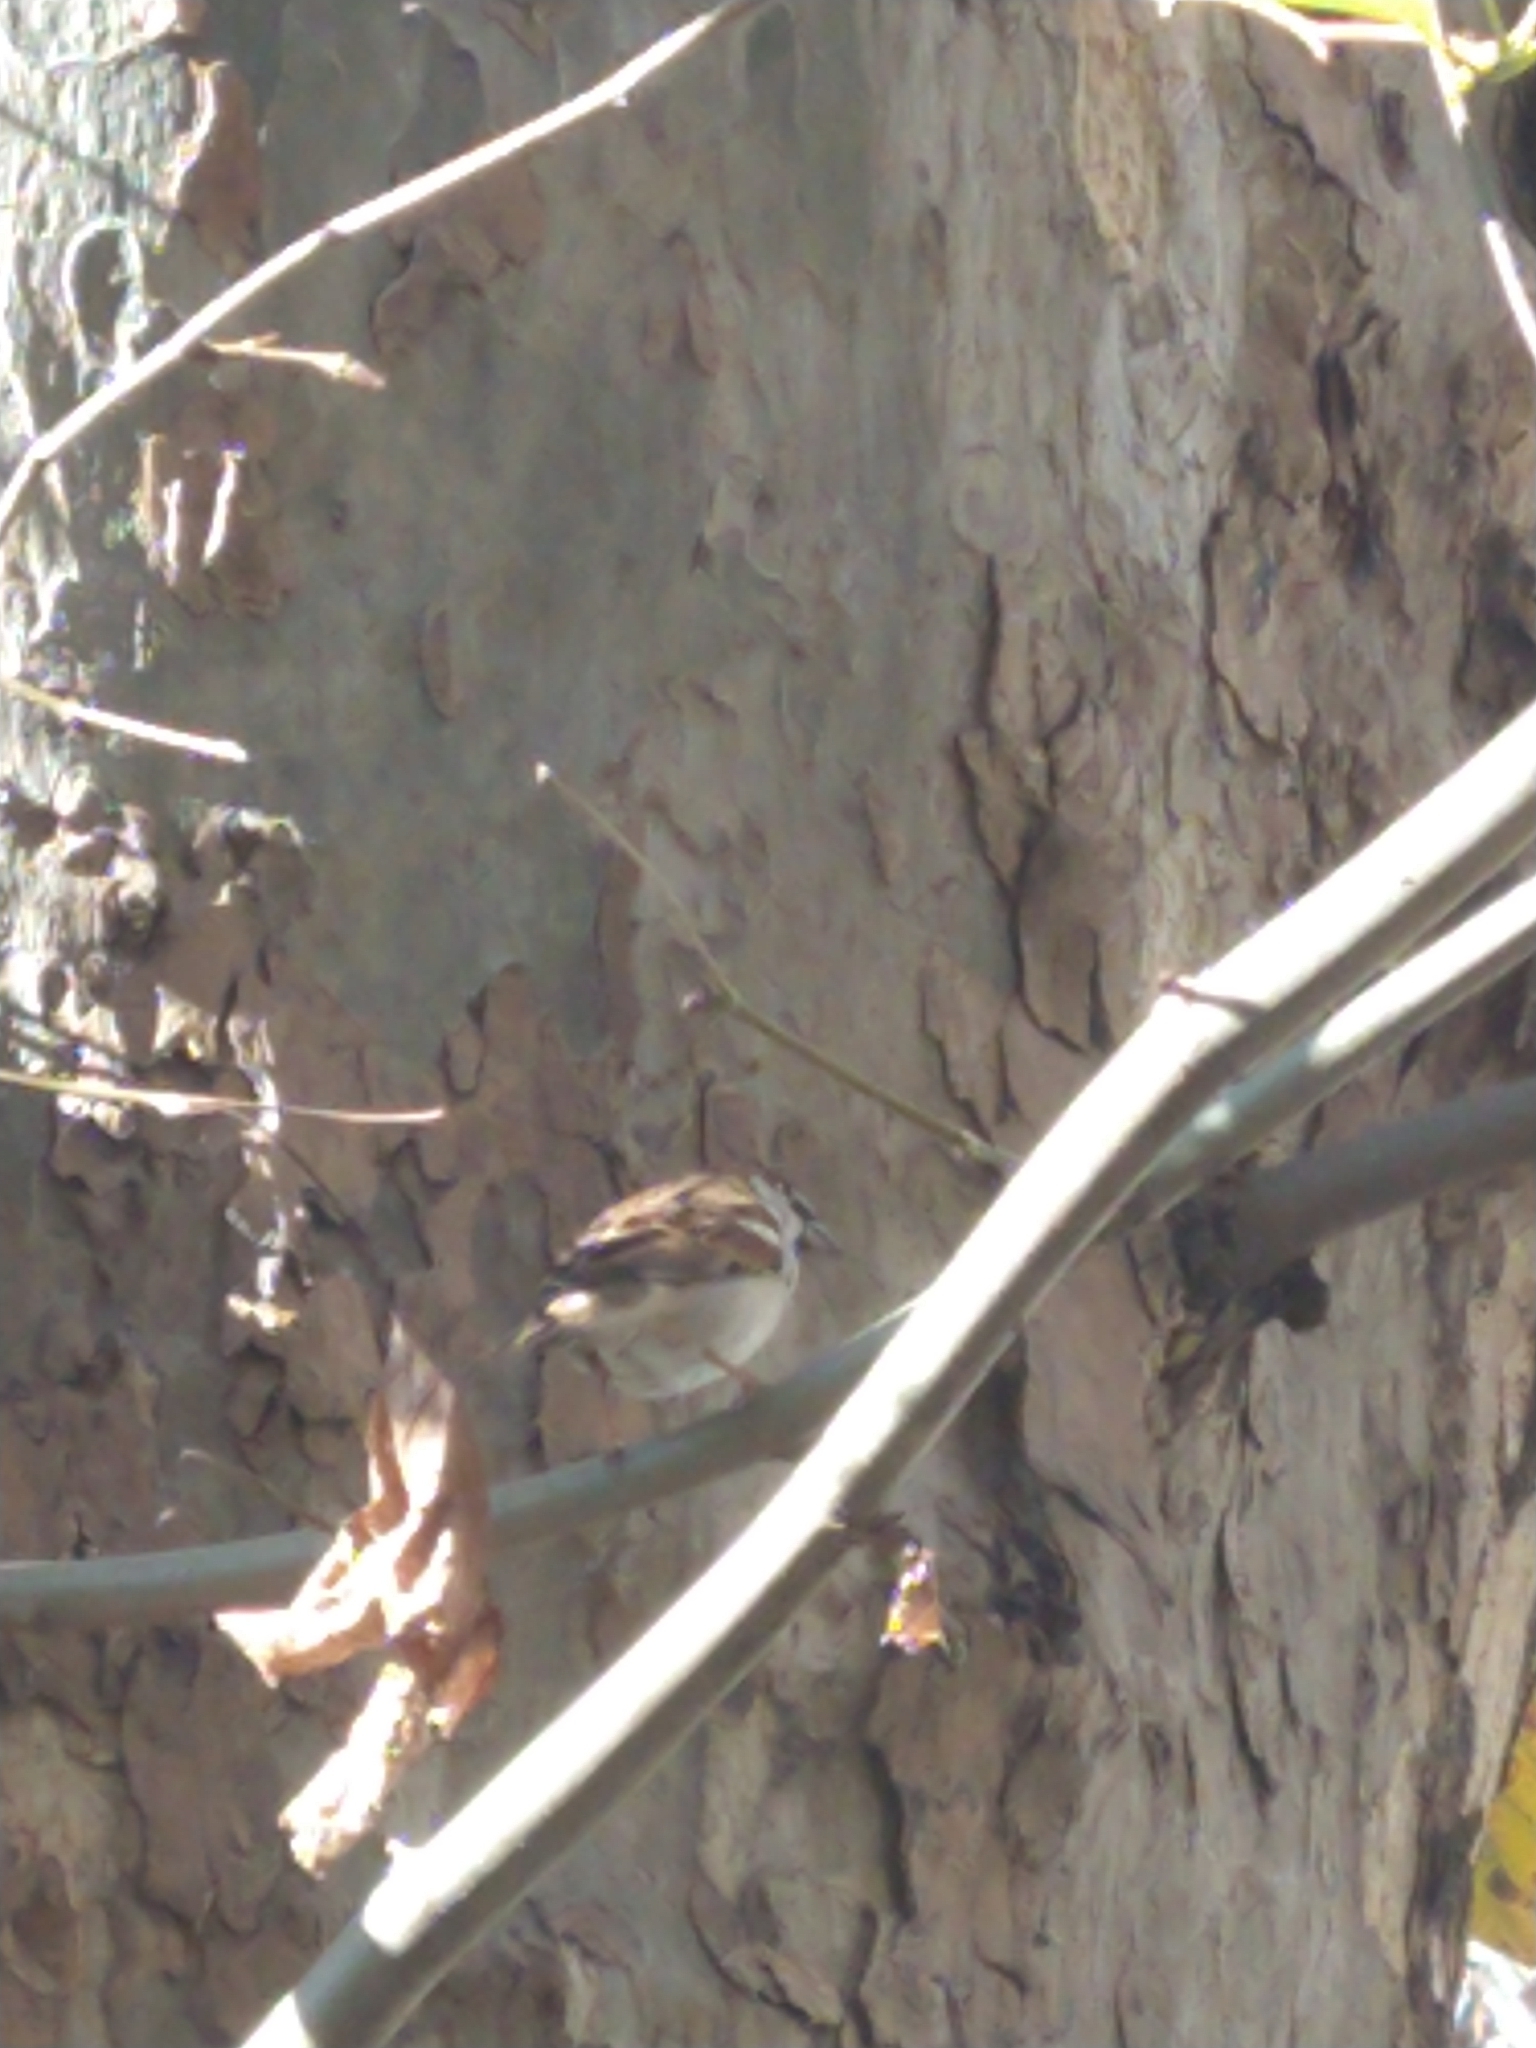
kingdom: Animalia
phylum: Chordata
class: Aves
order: Passeriformes
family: Passeridae
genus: Passer
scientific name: Passer domesticus
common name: House sparrow
